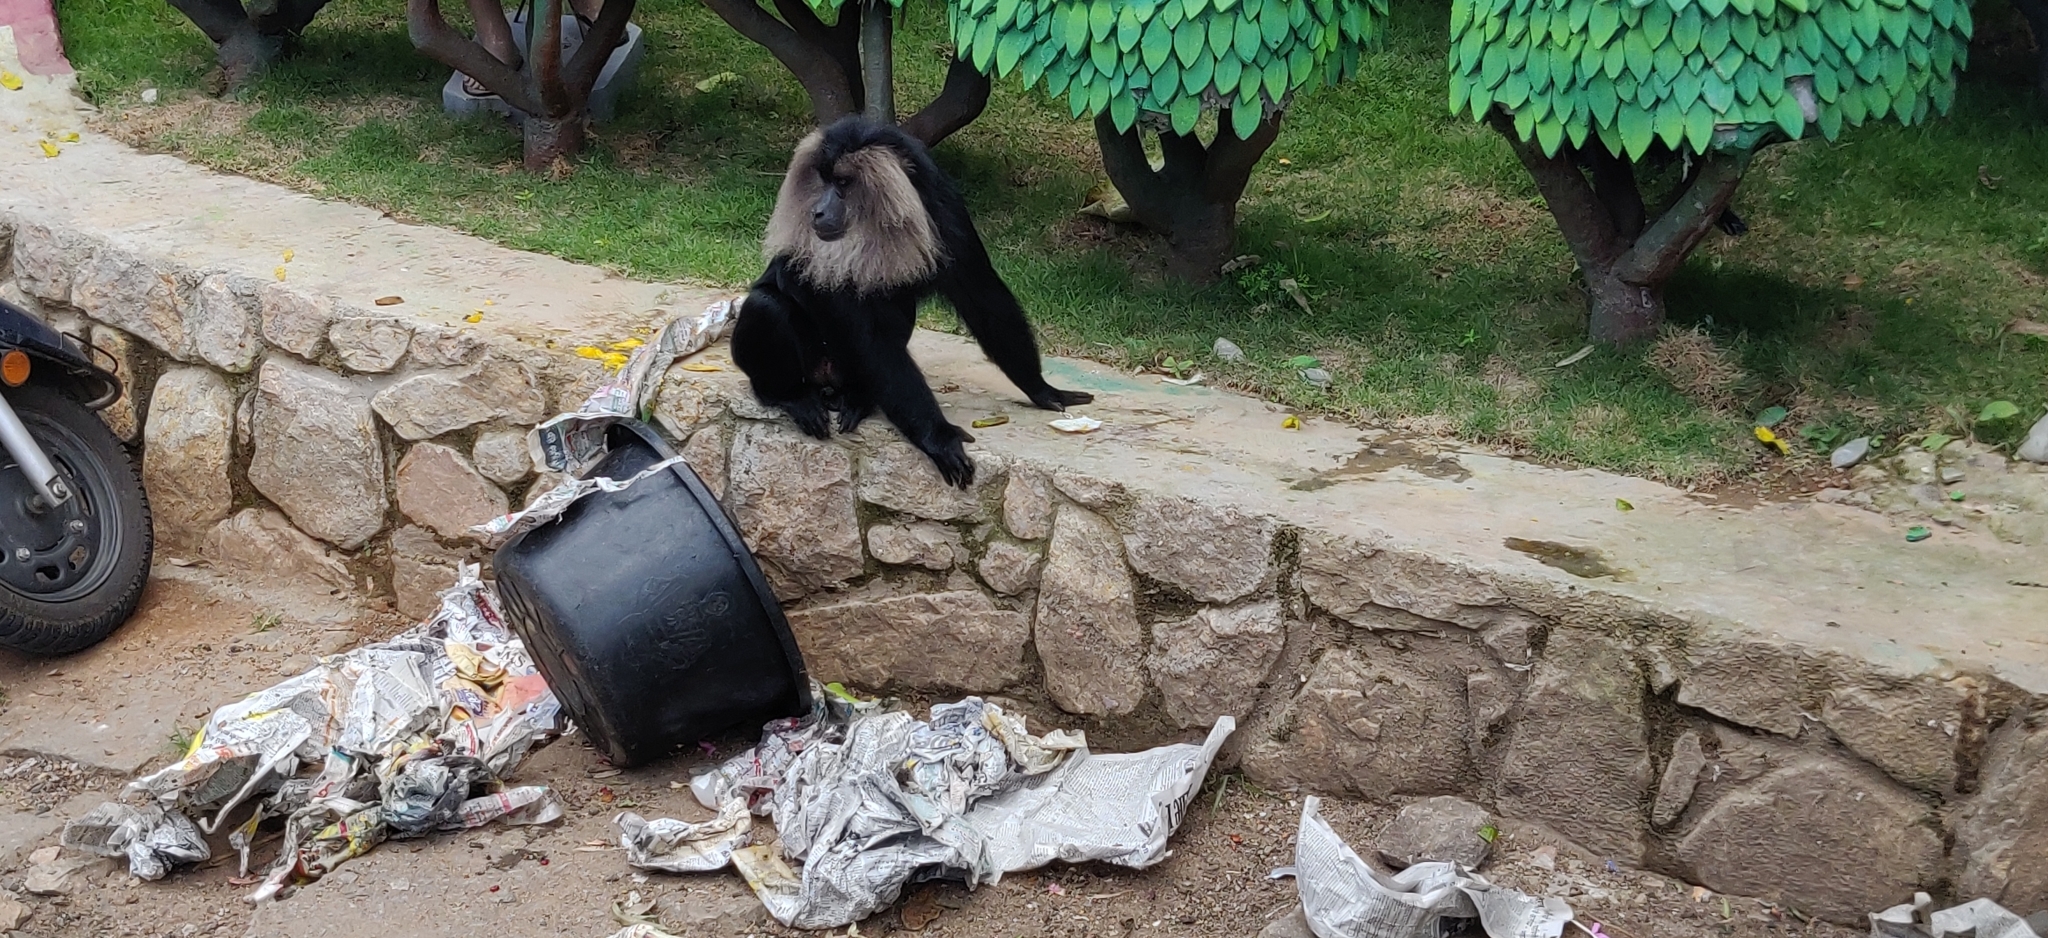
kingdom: Animalia
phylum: Chordata
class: Mammalia
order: Primates
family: Cercopithecidae
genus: Macaca
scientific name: Macaca silenus
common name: Lion-tailed macaque
